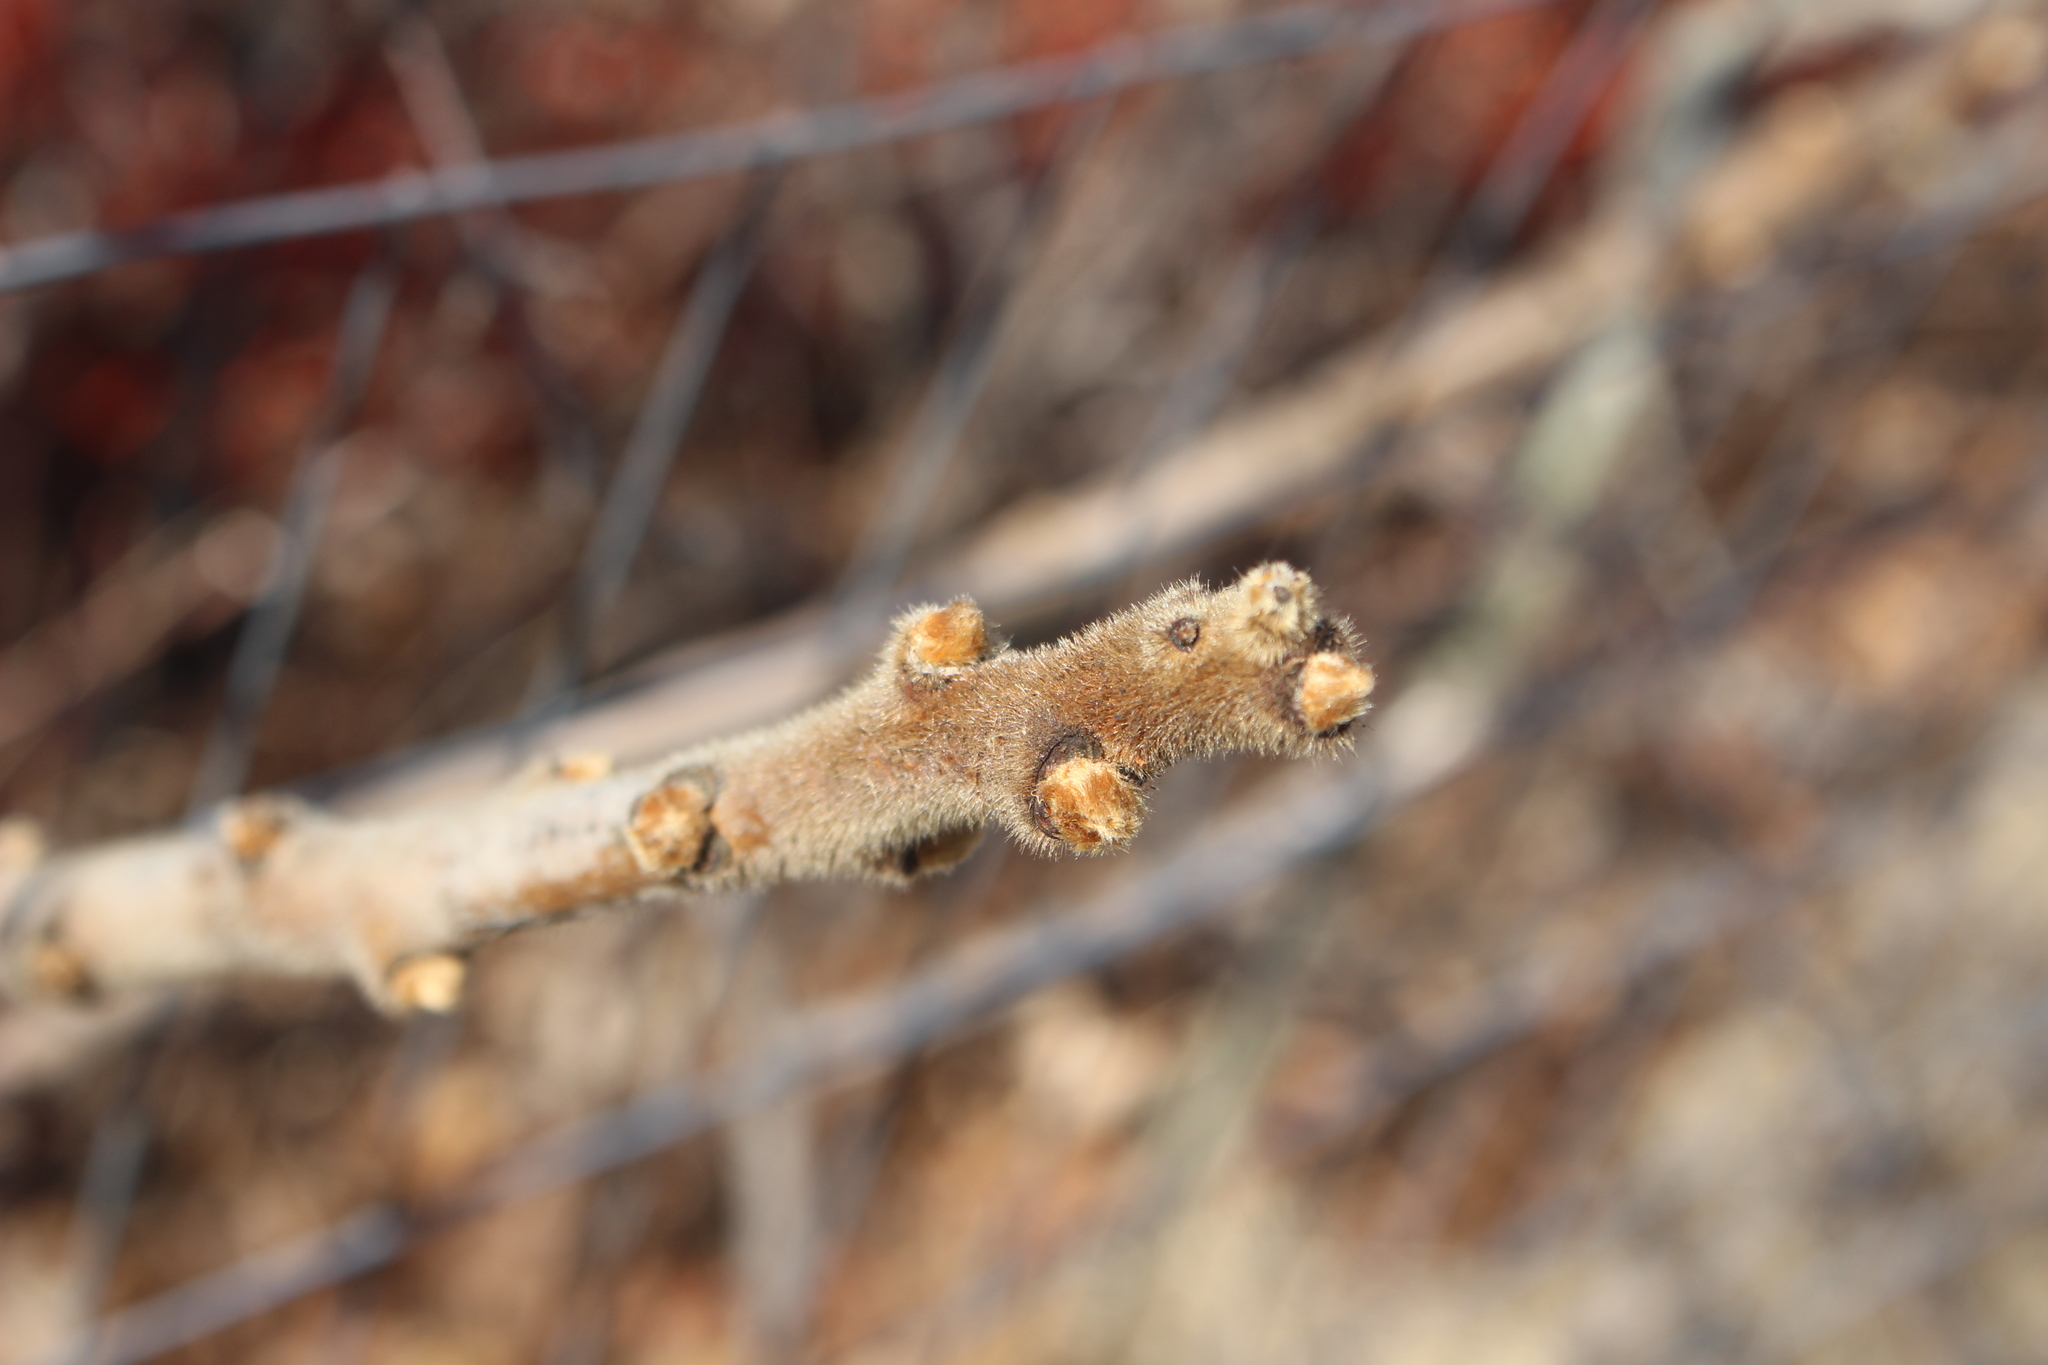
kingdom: Plantae
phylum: Tracheophyta
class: Magnoliopsida
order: Sapindales
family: Anacardiaceae
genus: Rhus
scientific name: Rhus typhina
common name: Staghorn sumac
